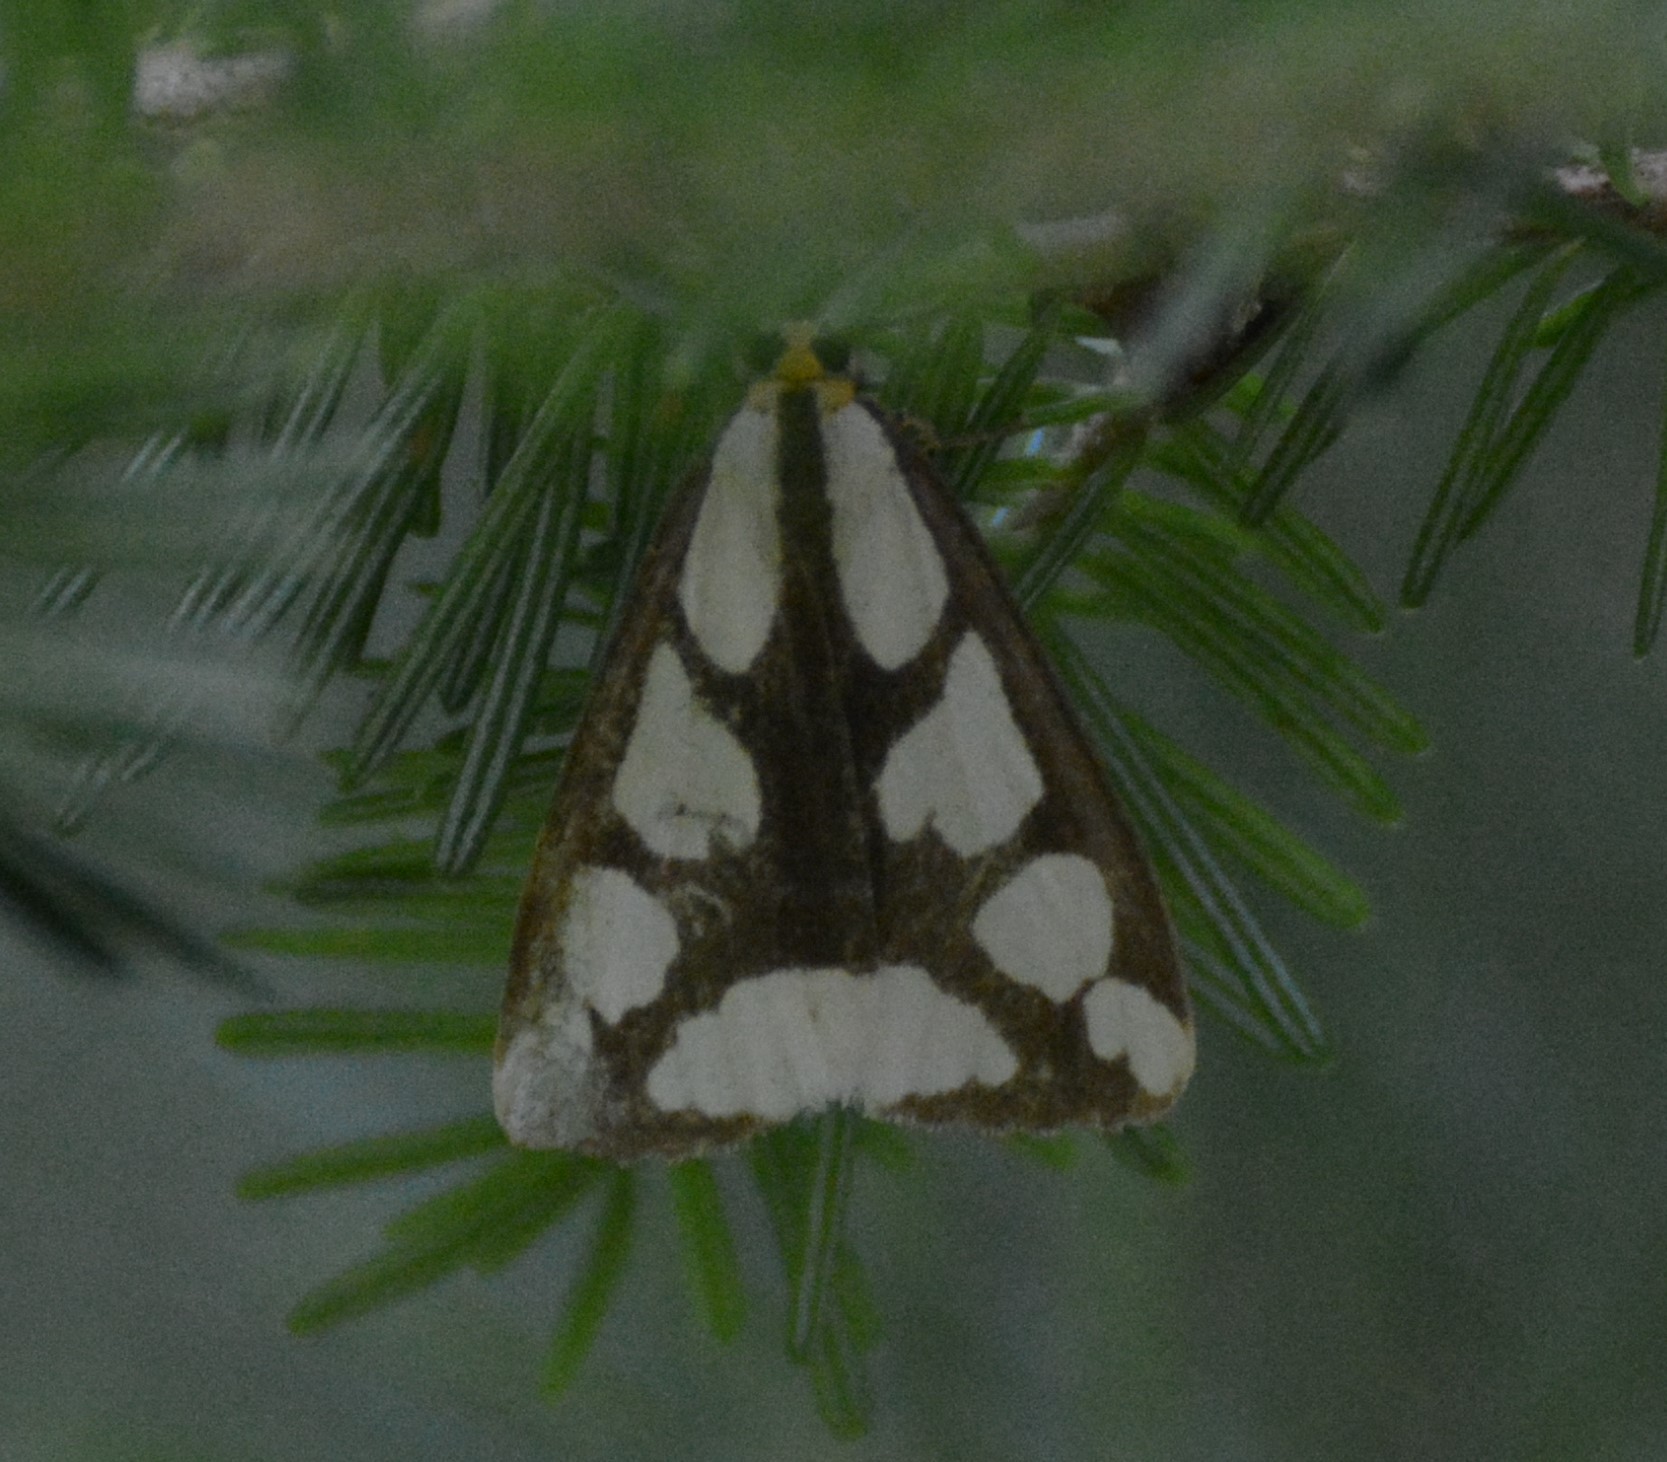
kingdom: Animalia
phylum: Arthropoda
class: Insecta
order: Lepidoptera
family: Erebidae
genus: Haploa
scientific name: Haploa lecontei
